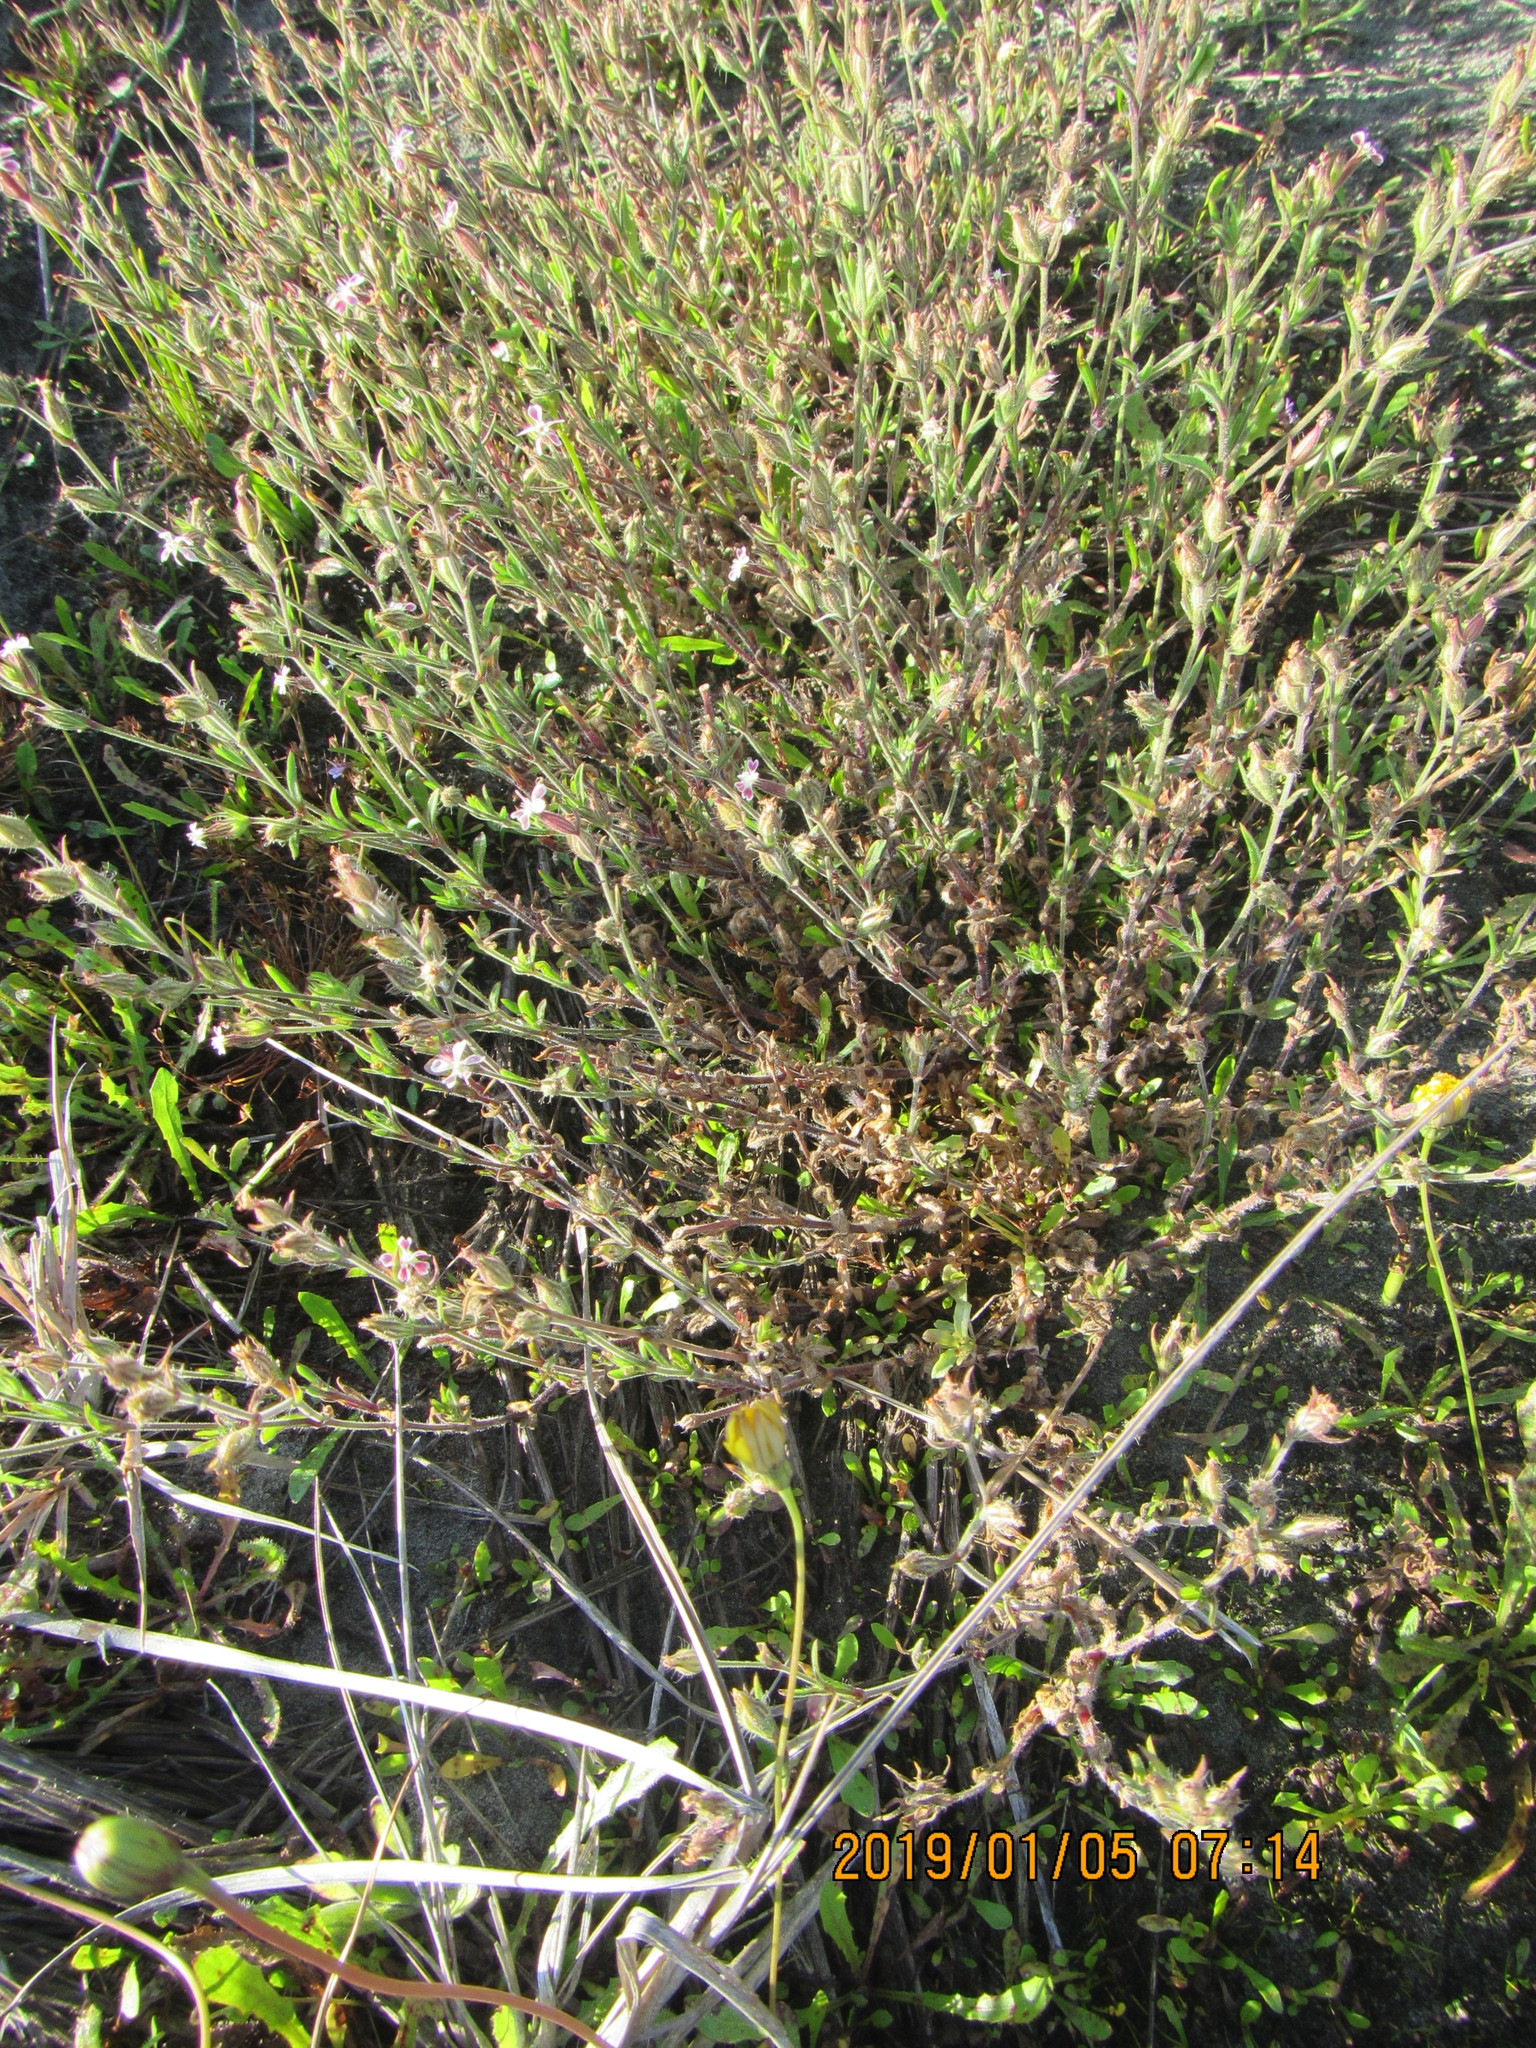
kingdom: Plantae
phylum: Tracheophyta
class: Magnoliopsida
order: Caryophyllales
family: Caryophyllaceae
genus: Silene
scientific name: Silene gallica
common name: Small-flowered catchfly
